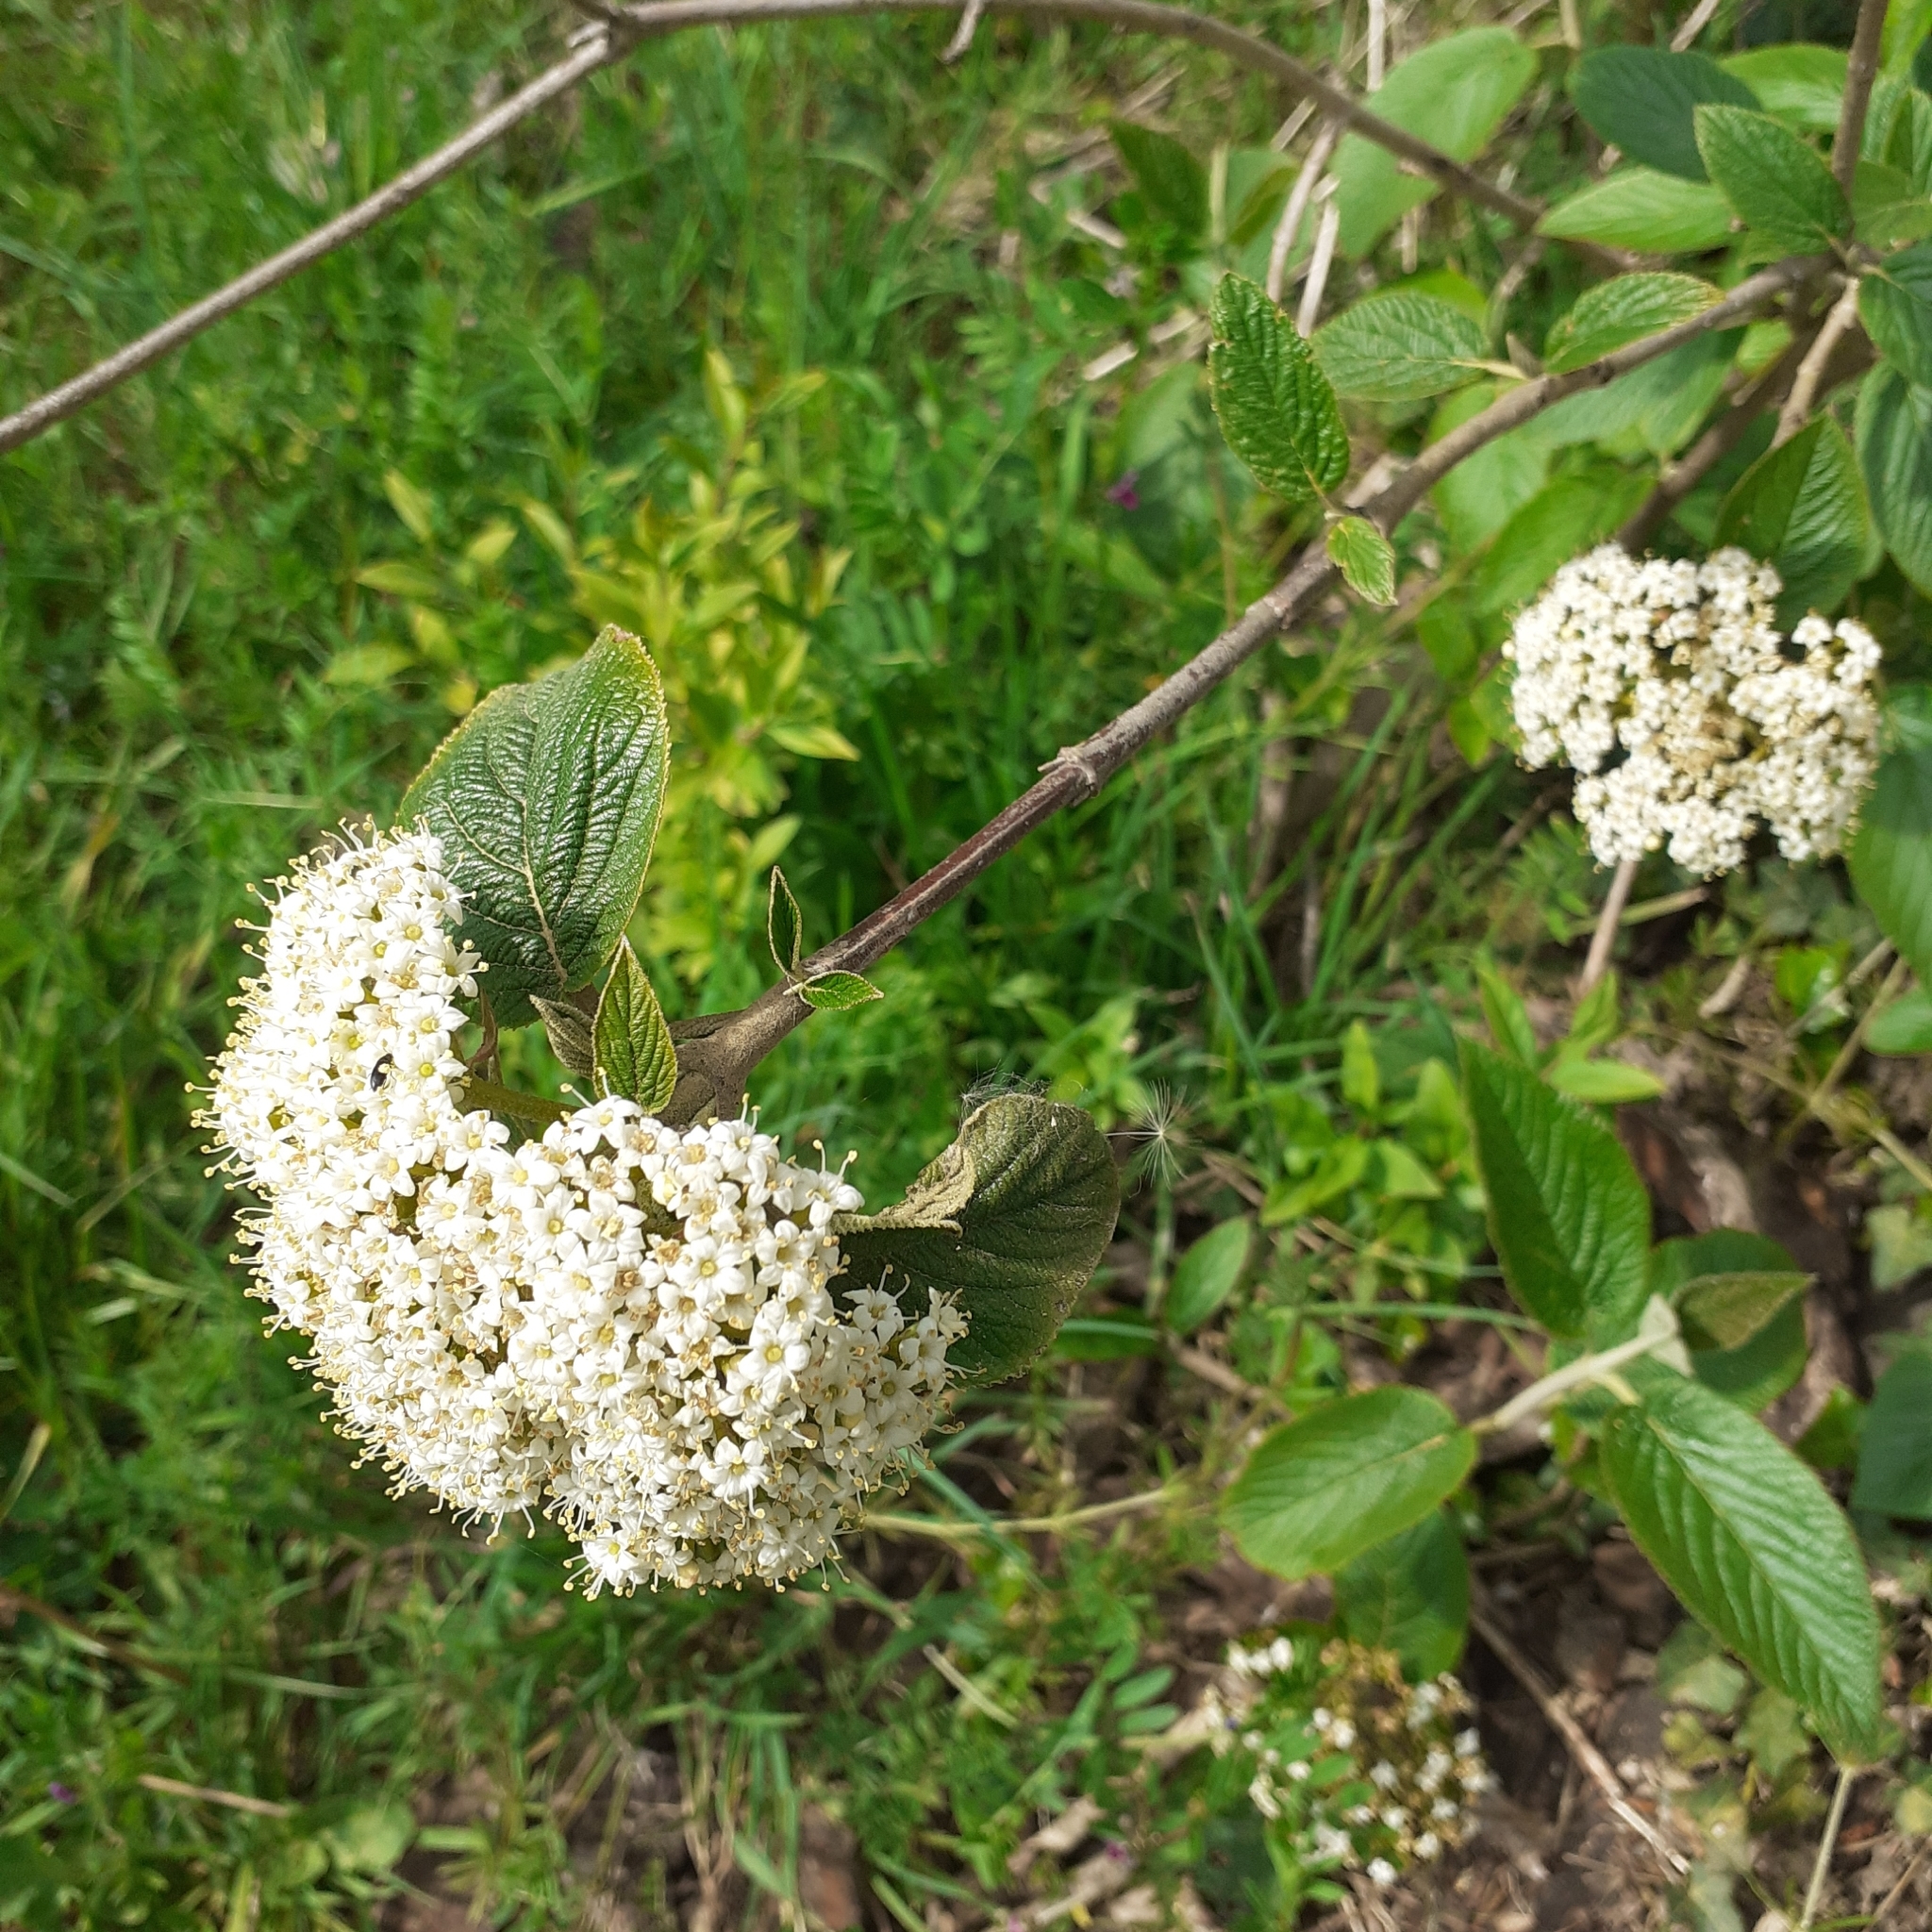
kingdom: Plantae
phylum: Tracheophyta
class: Magnoliopsida
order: Dipsacales
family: Viburnaceae
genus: Viburnum
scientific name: Viburnum lantana
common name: Wayfaring tree
